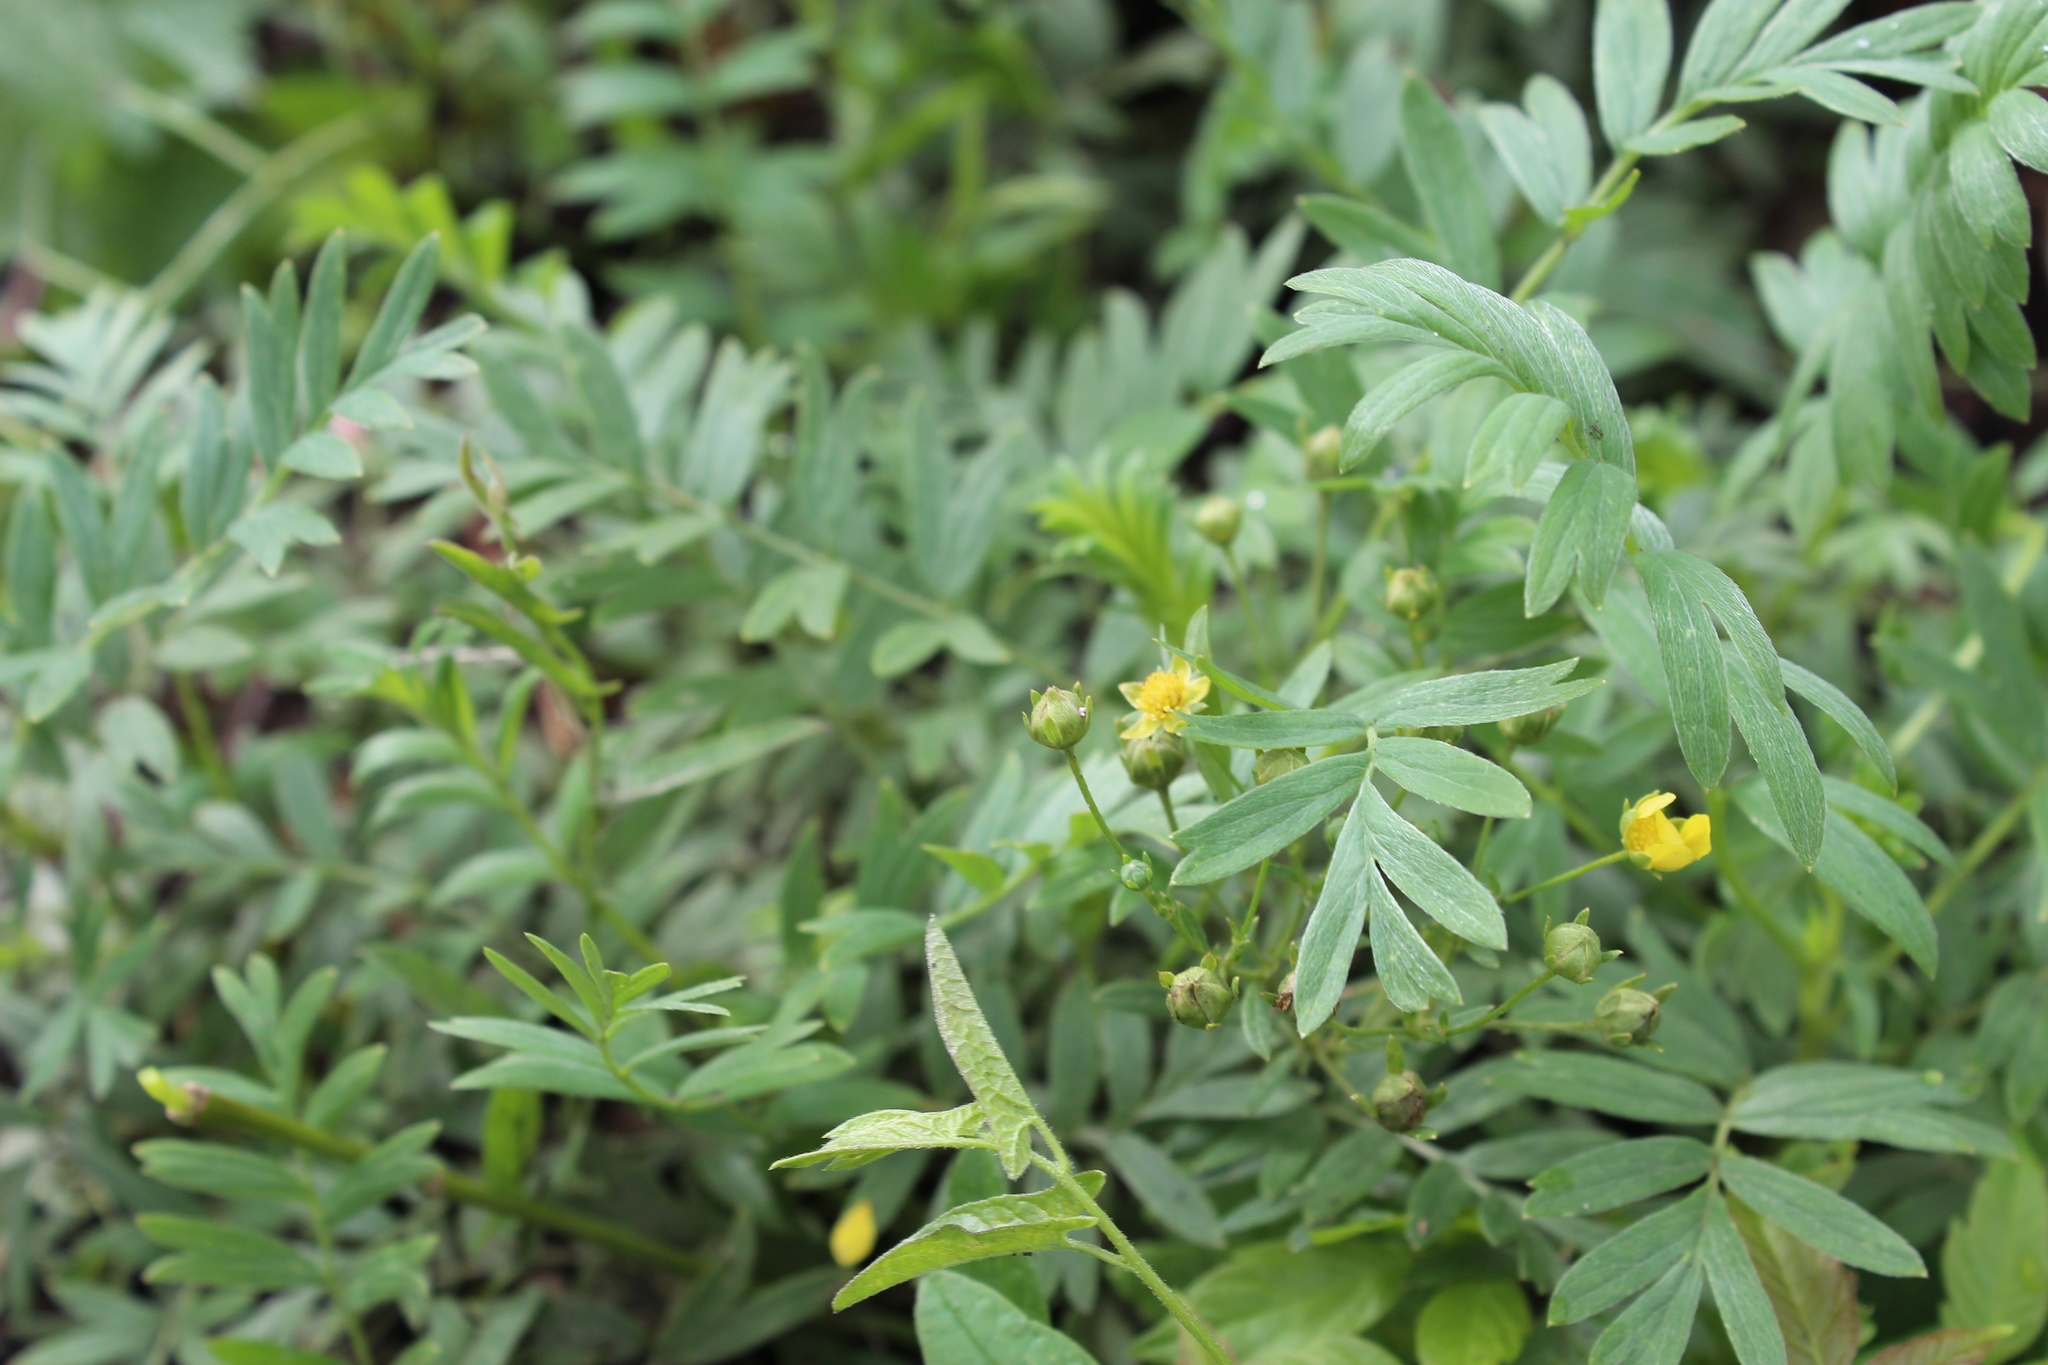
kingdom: Plantae
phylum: Tracheophyta
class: Magnoliopsida
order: Rosales
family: Rosaceae
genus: Sibbaldianthe
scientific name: Sibbaldianthe bifurca
